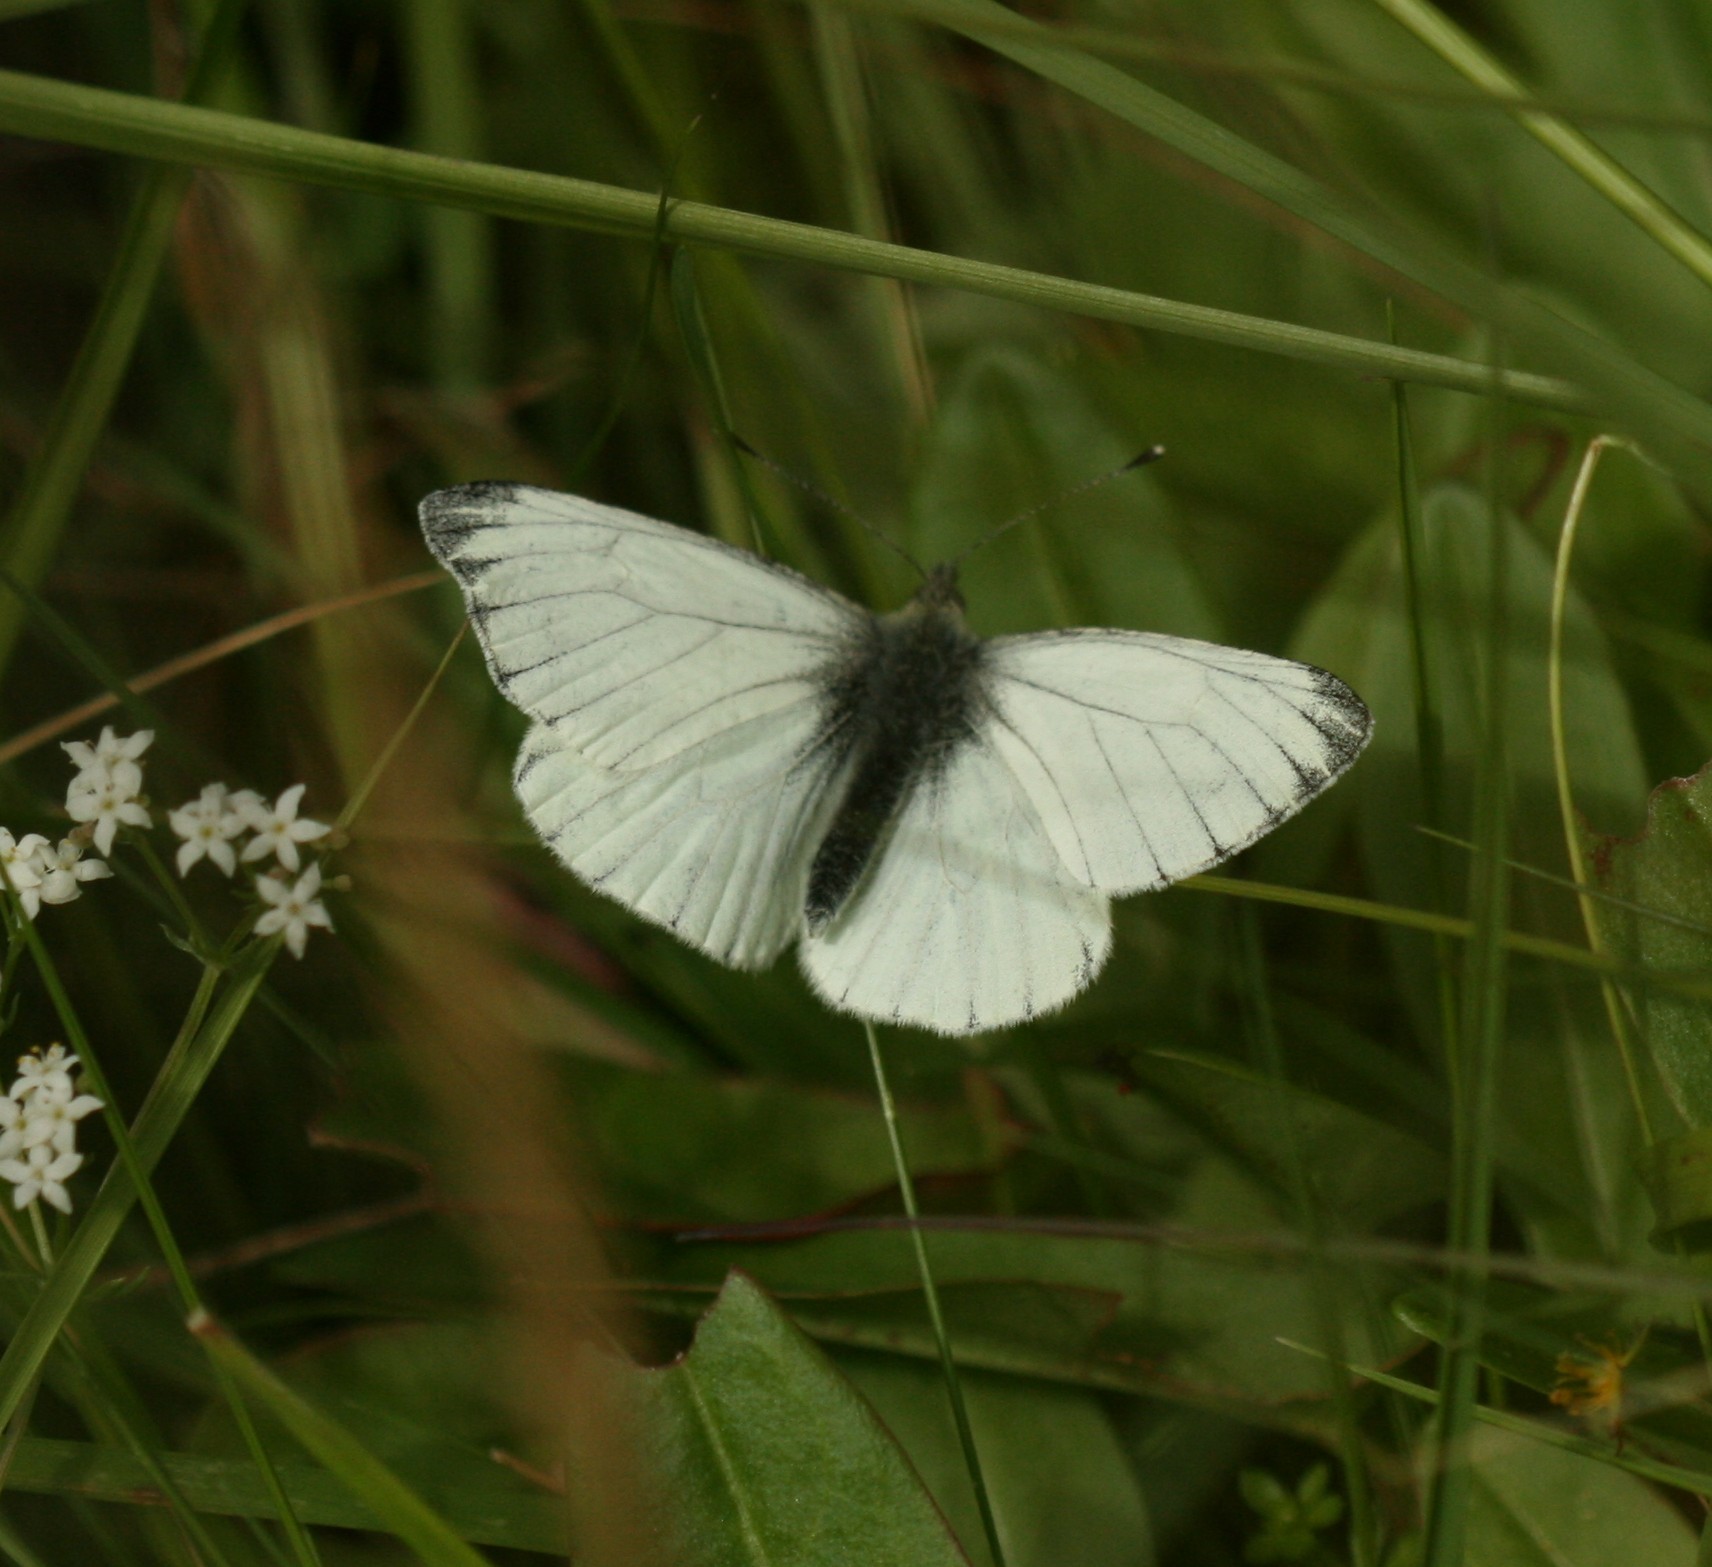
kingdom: Animalia
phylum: Arthropoda
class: Insecta
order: Lepidoptera
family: Pieridae
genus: Pieris
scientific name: Pieris napi
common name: Green-veined white
